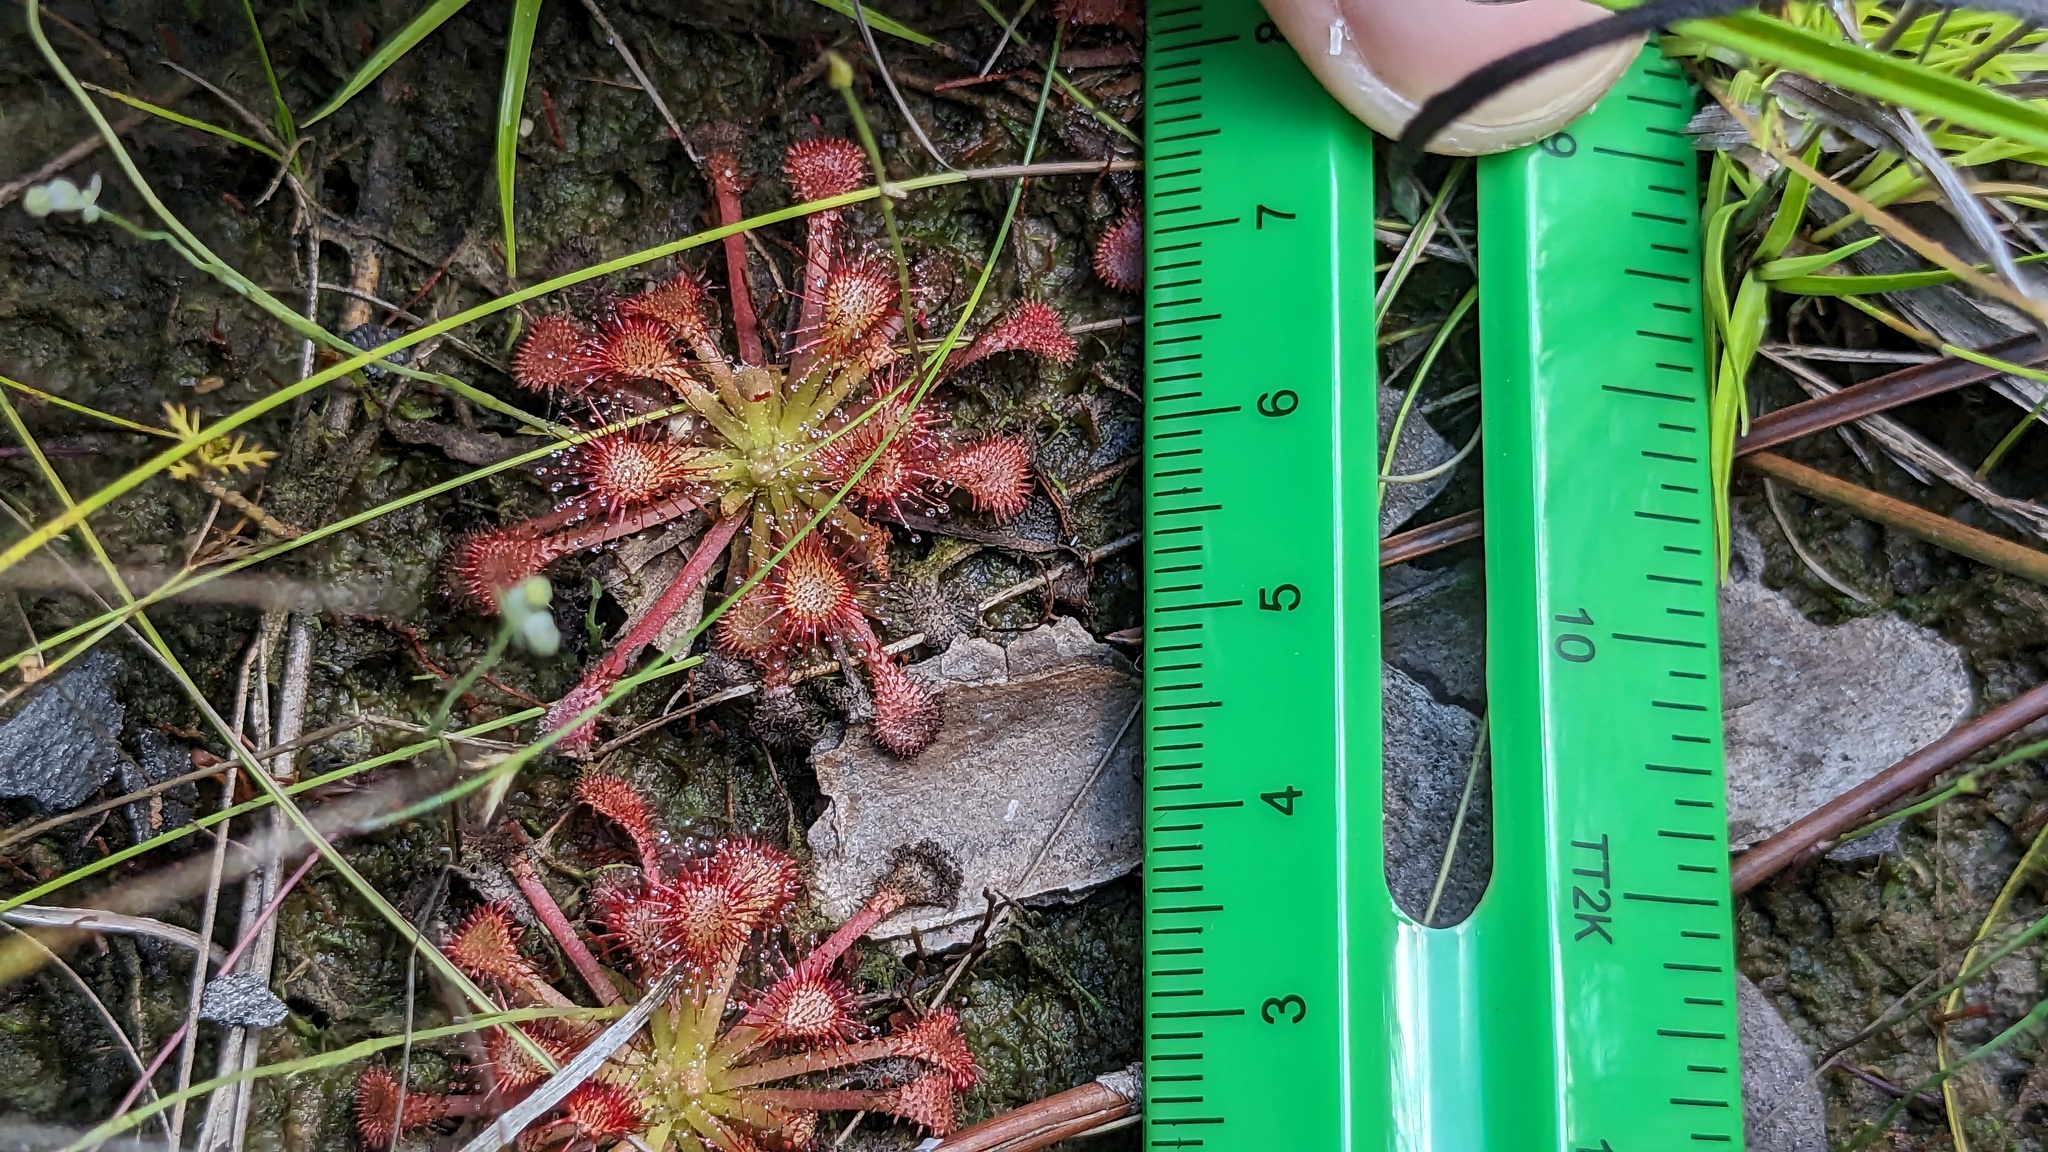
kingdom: Plantae
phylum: Tracheophyta
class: Magnoliopsida
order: Caryophyllales
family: Droseraceae
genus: Drosera
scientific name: Drosera capillaris
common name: Pink sundew
